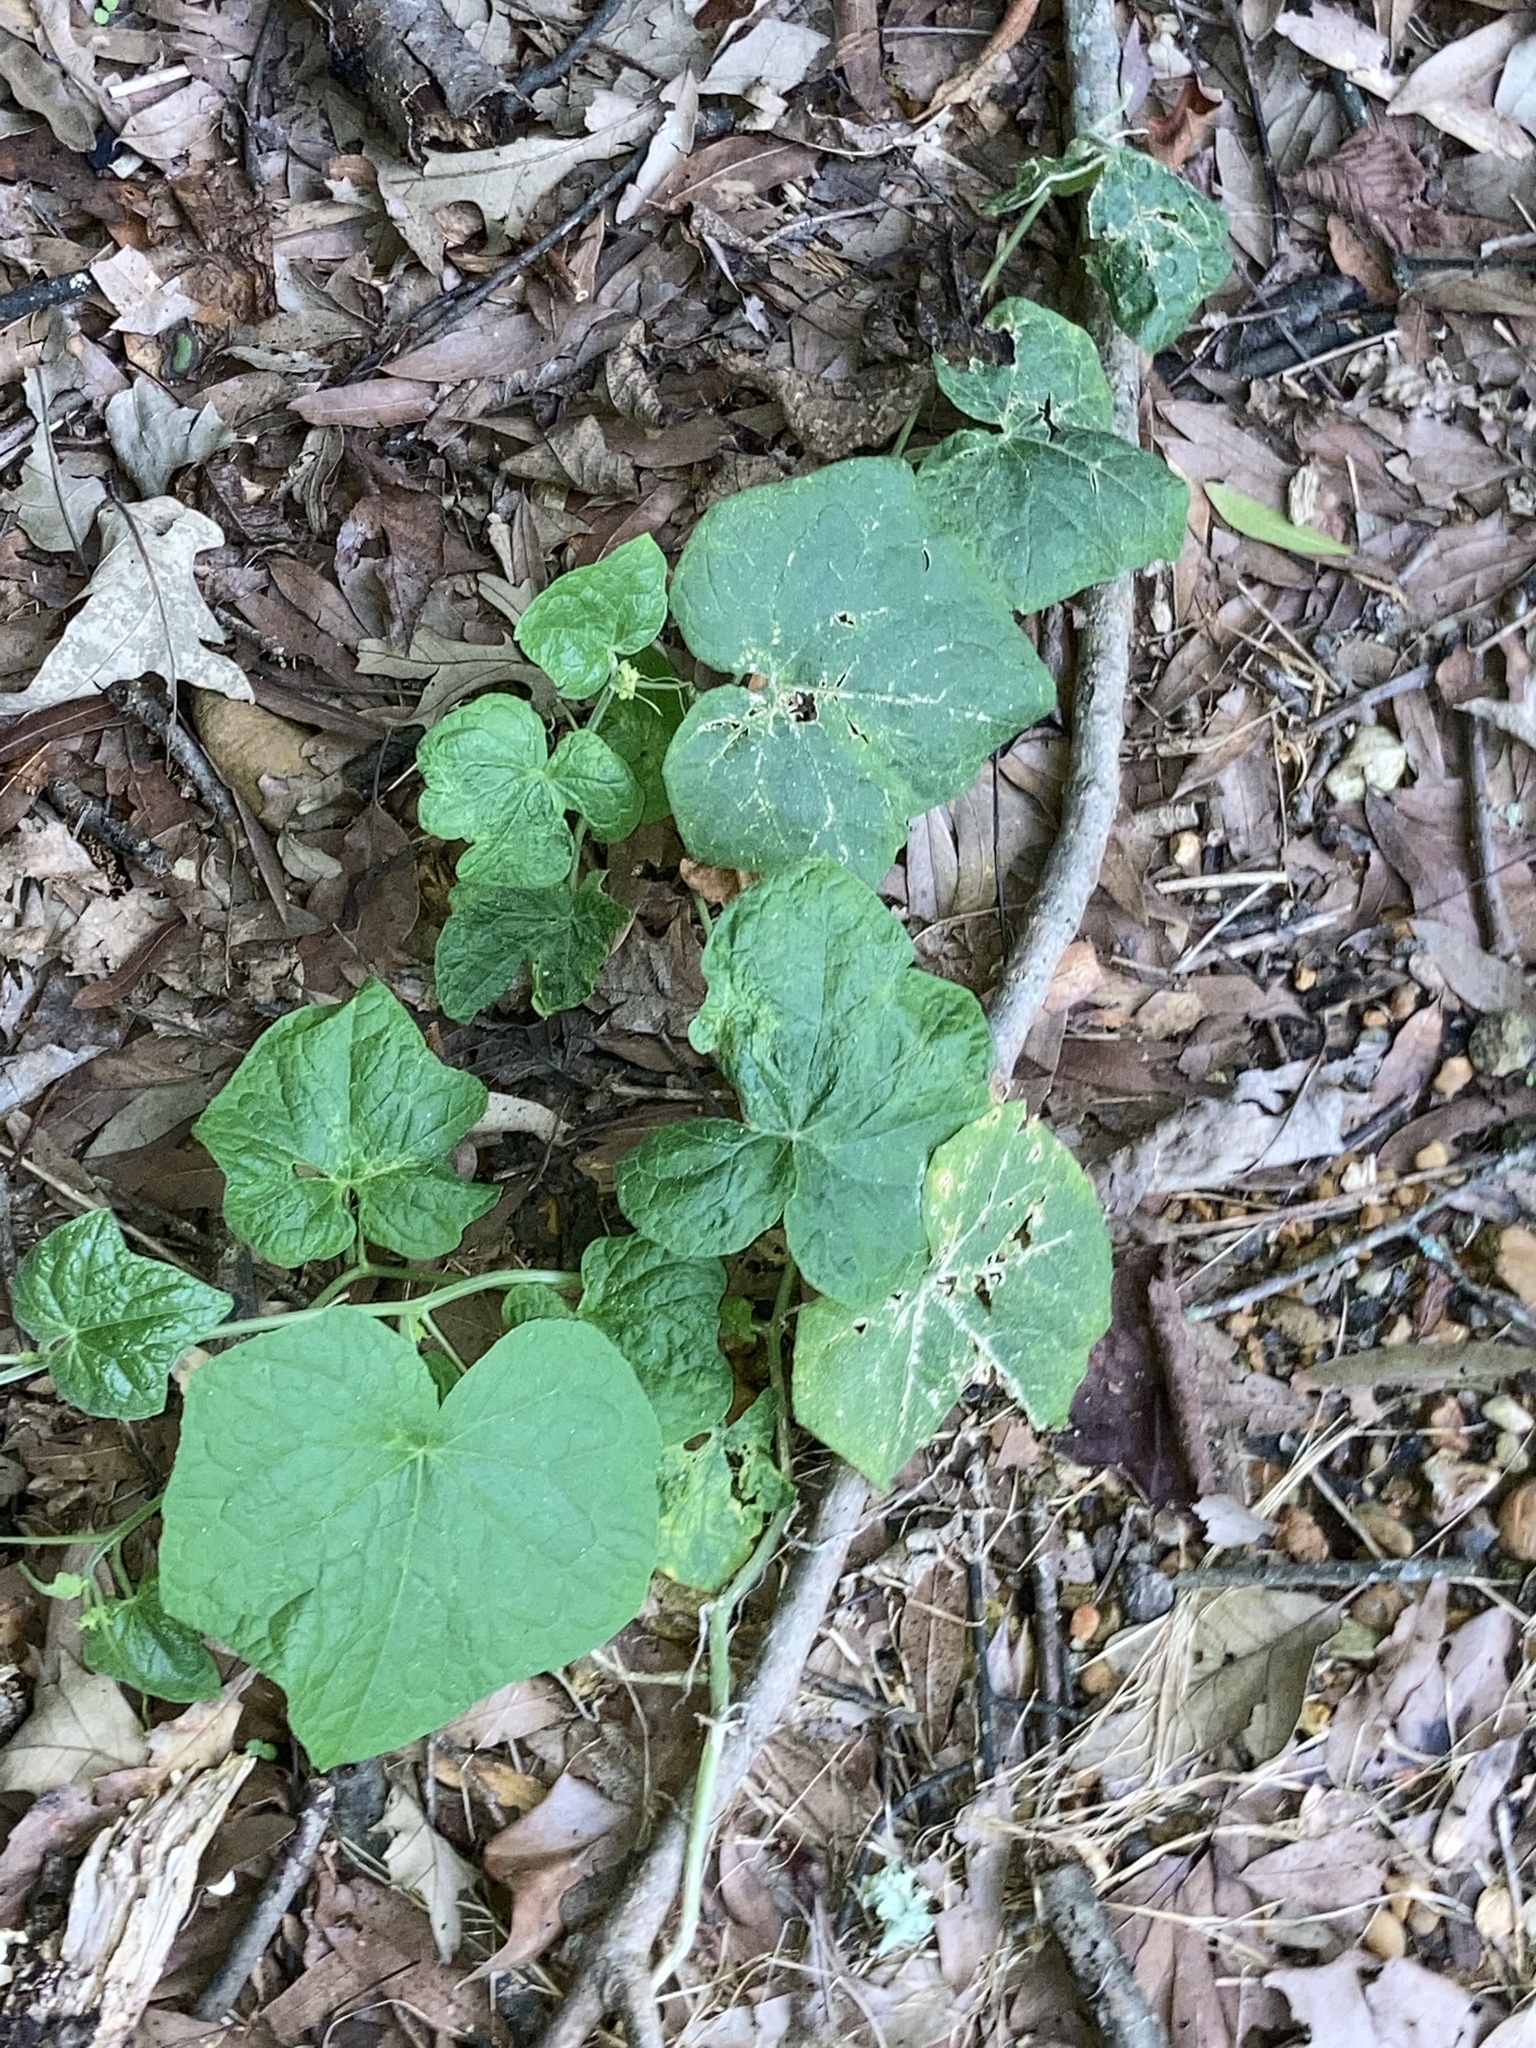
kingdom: Plantae
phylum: Tracheophyta
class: Magnoliopsida
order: Cucurbitales
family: Cucurbitaceae
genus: Sicyos
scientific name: Sicyos angulatus
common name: Angled burr cucumber
